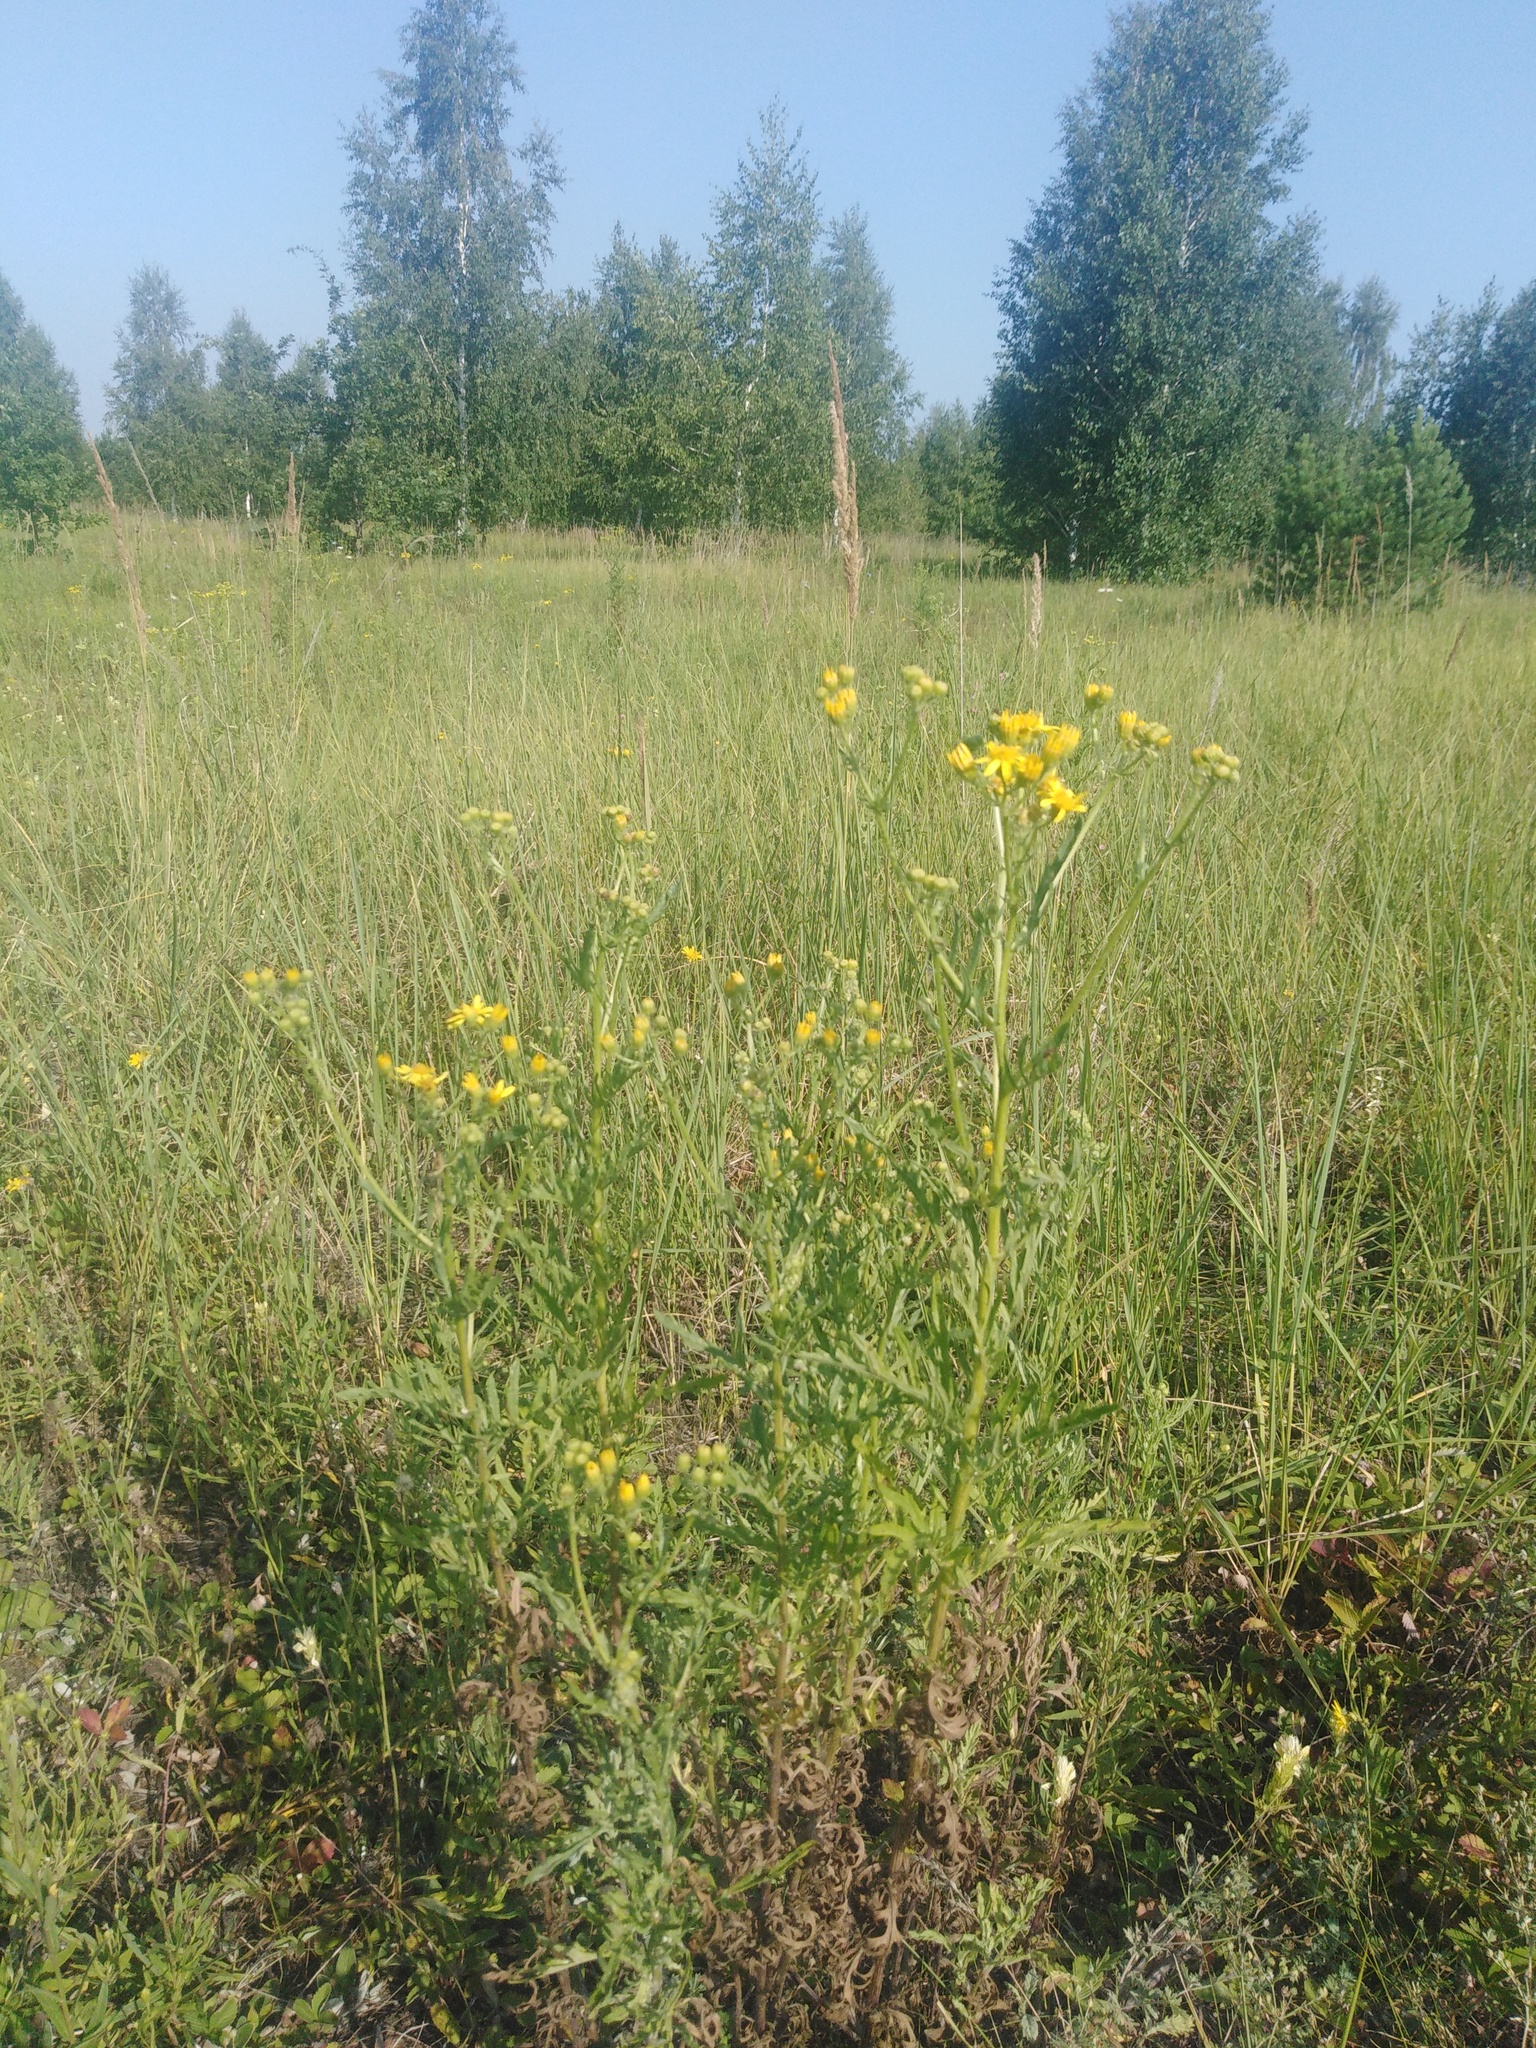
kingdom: Plantae
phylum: Tracheophyta
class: Magnoliopsida
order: Asterales
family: Asteraceae
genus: Jacobaea
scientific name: Jacobaea erucifolia
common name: Hoary ragwort
